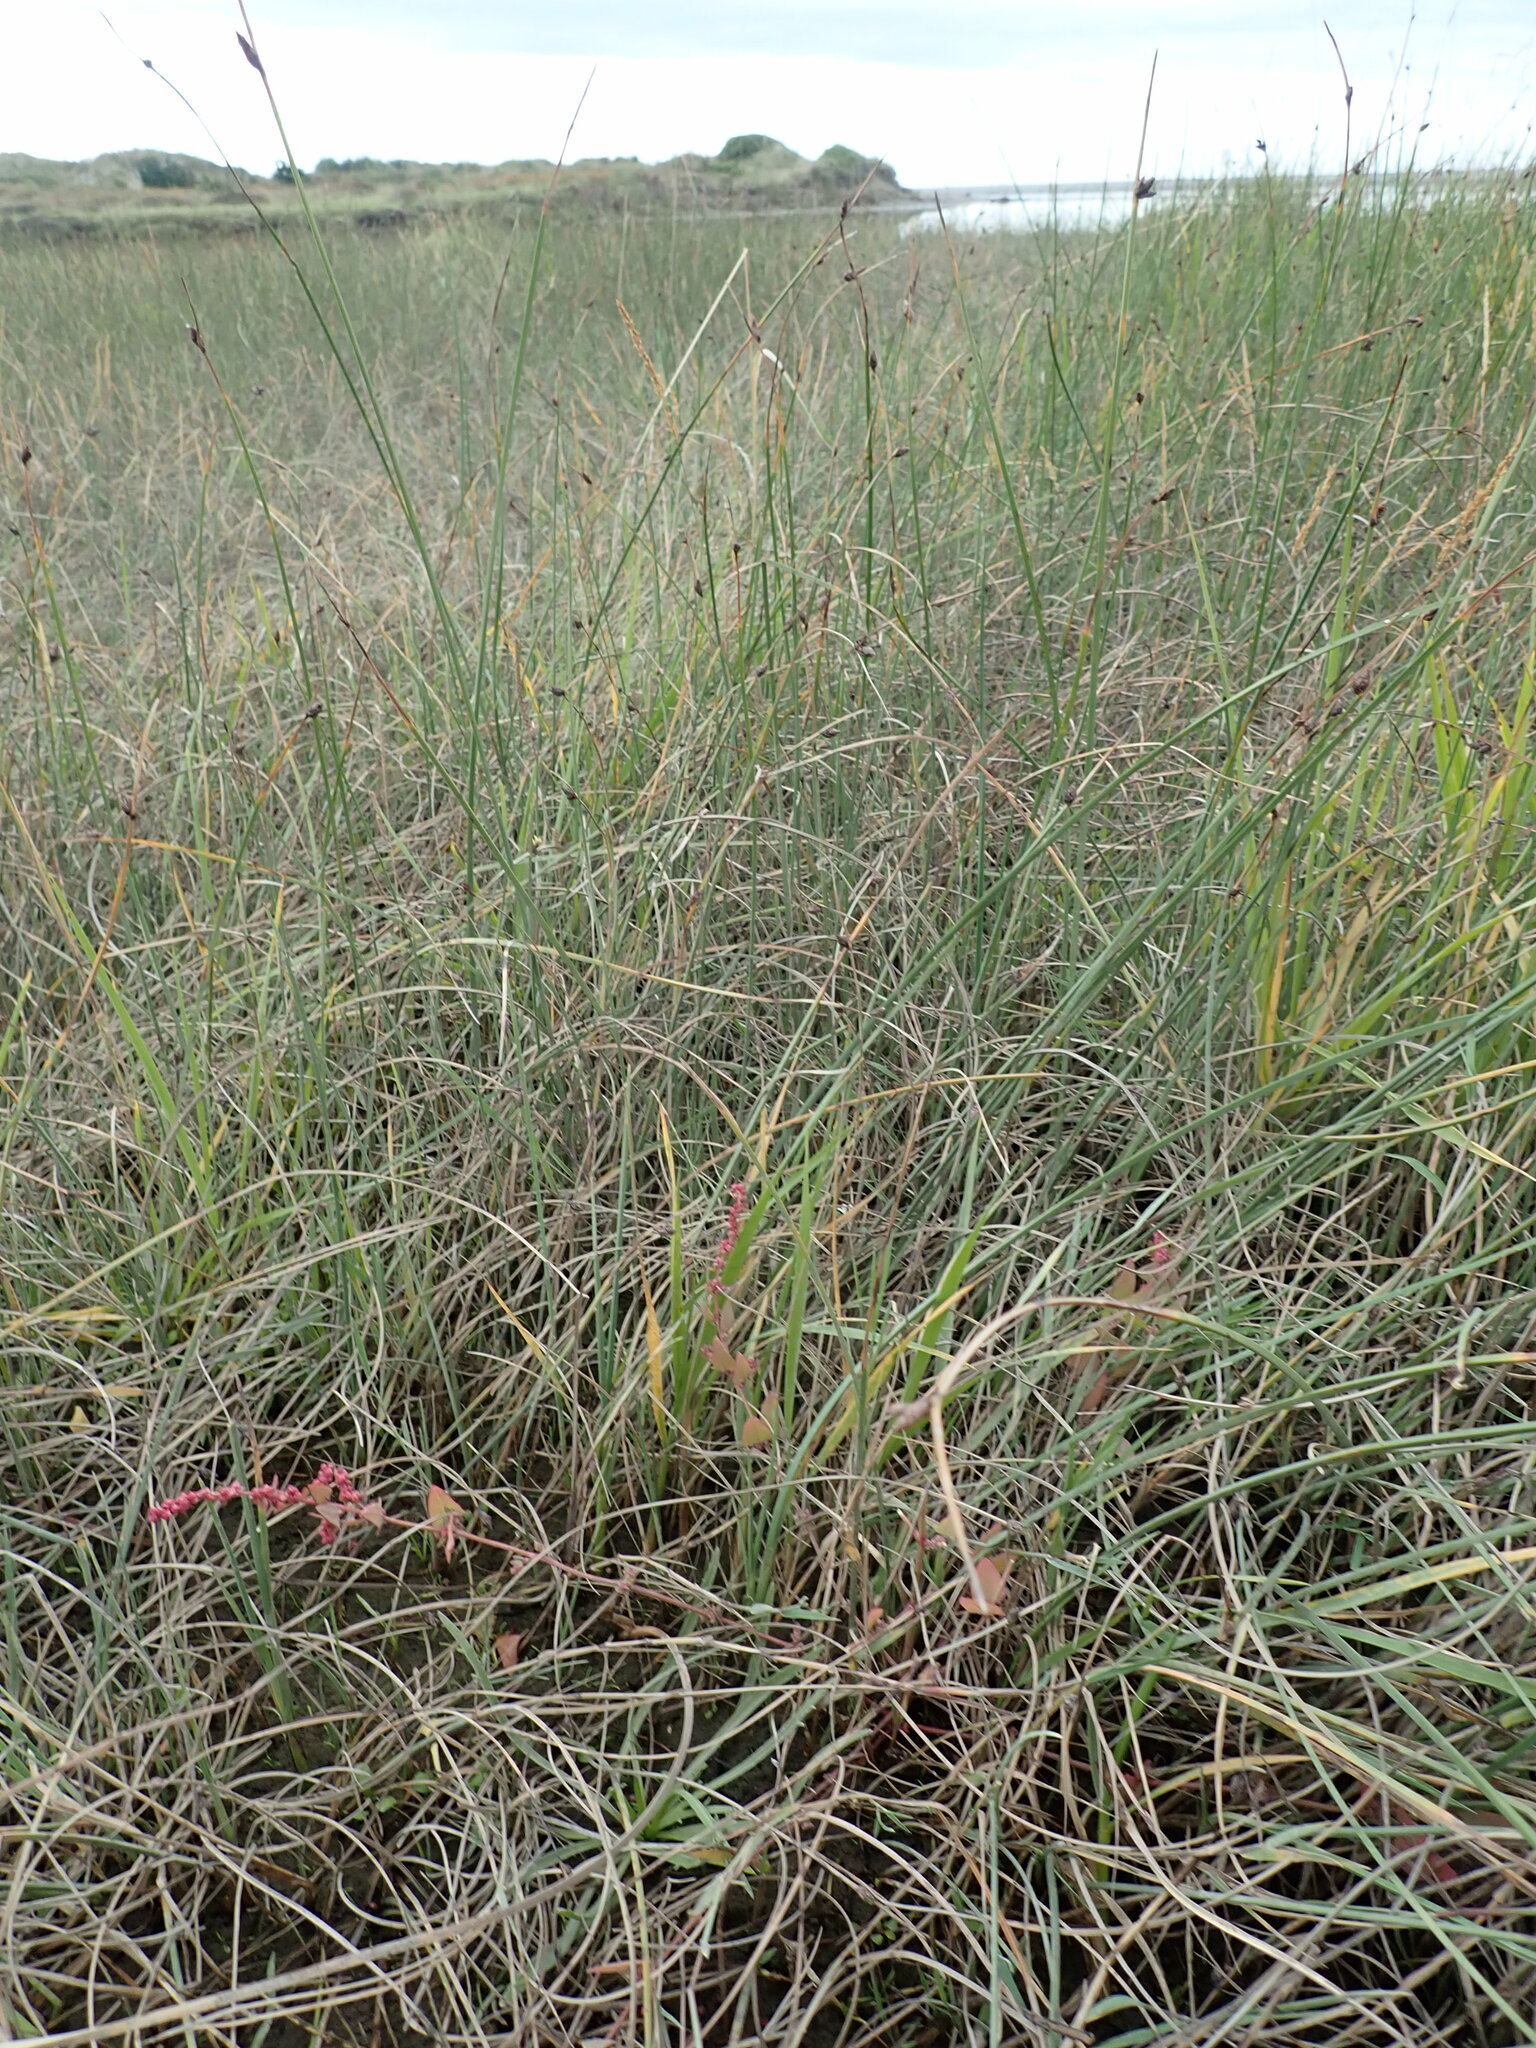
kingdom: Plantae
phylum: Tracheophyta
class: Magnoliopsida
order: Caryophyllales
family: Amaranthaceae
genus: Atriplex
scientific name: Atriplex prostrata
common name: Spear-leaved orache
